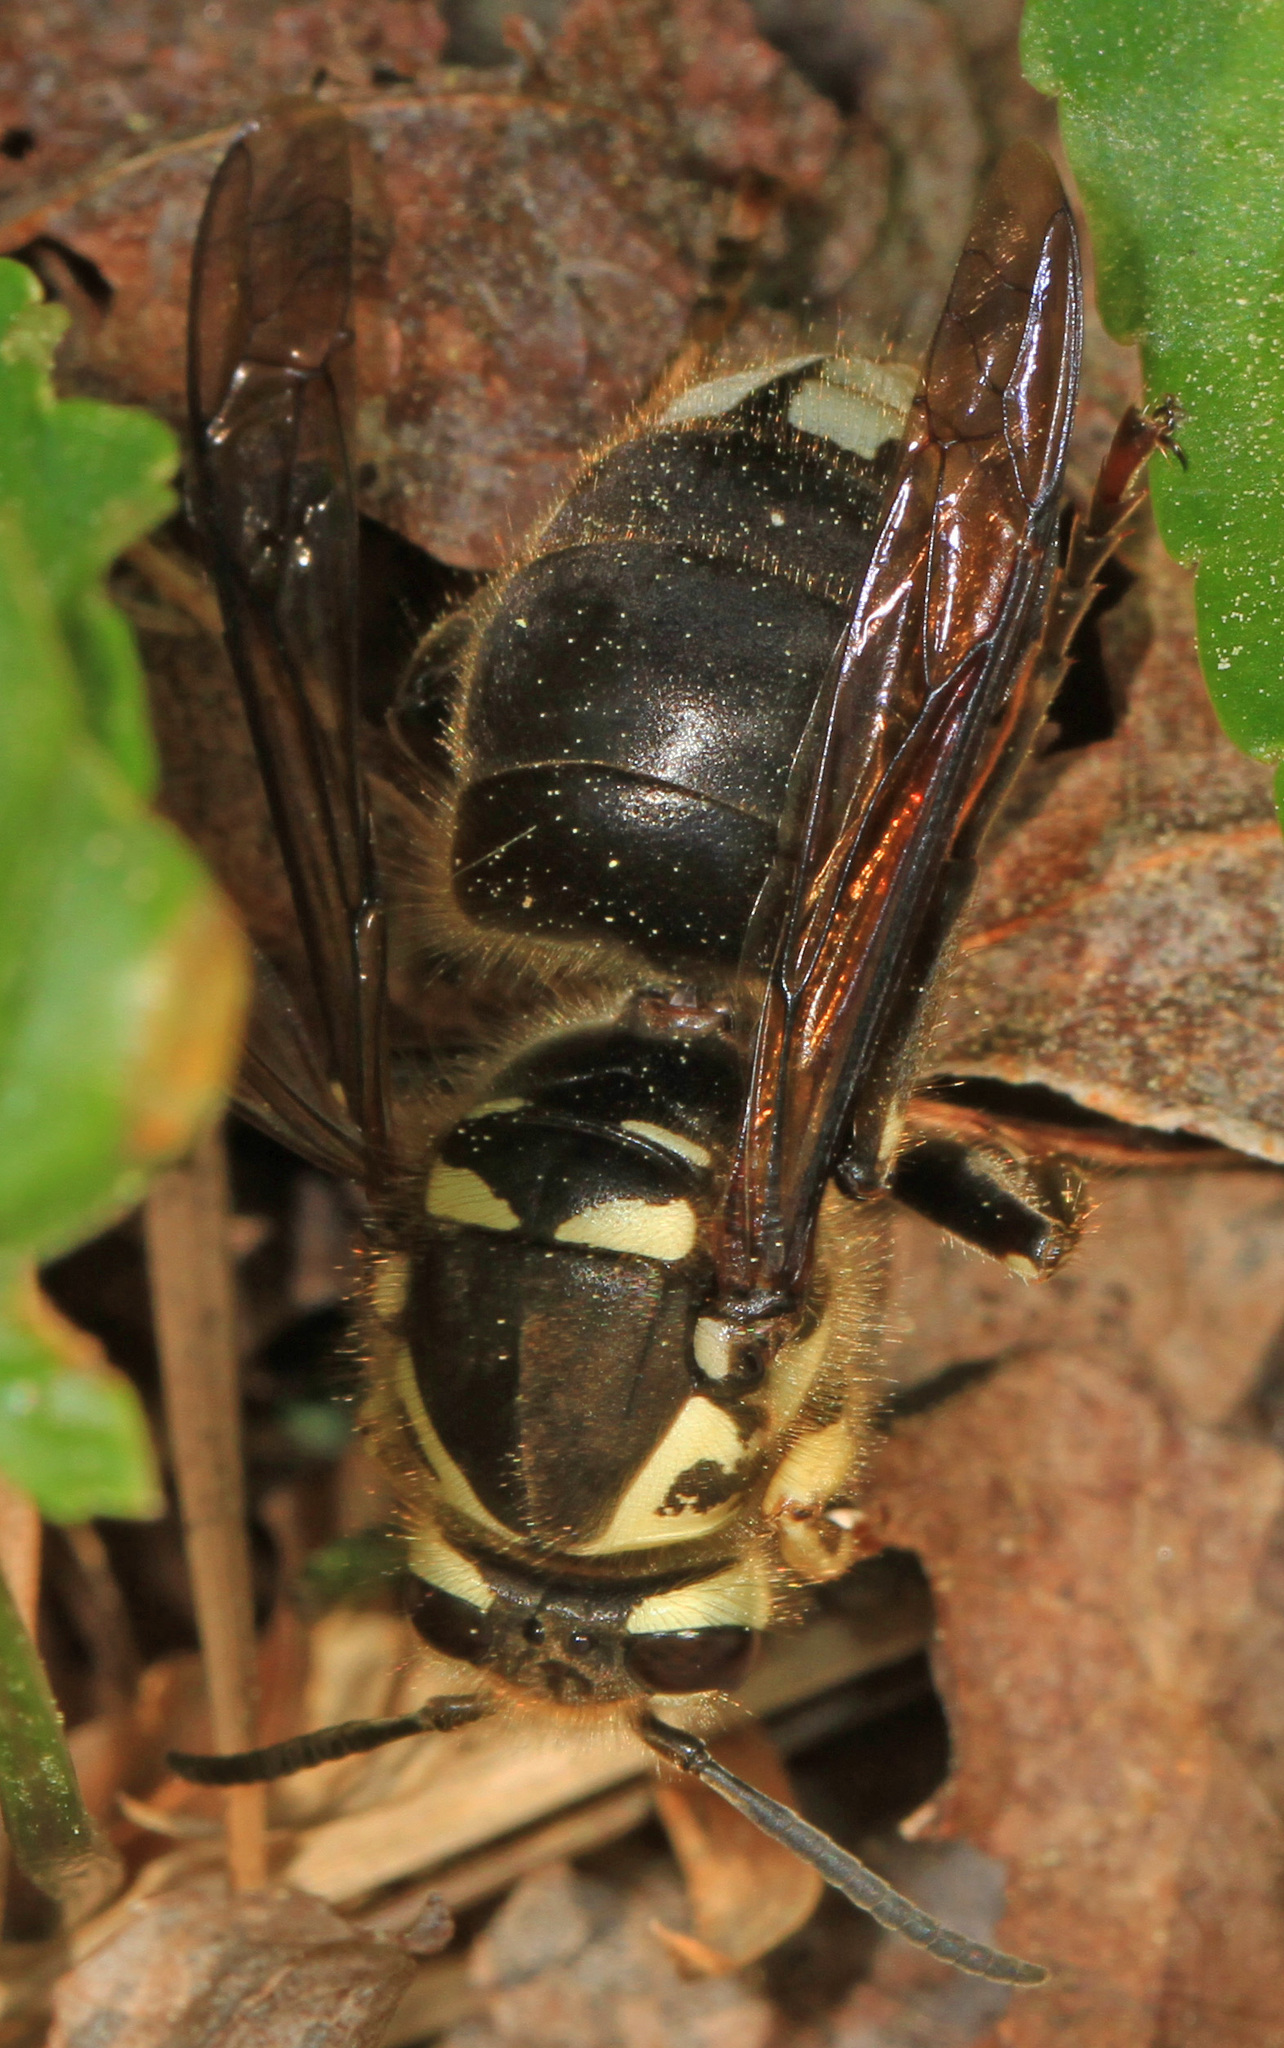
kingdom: Animalia
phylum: Arthropoda
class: Insecta
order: Hymenoptera
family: Vespidae
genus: Dolichovespula
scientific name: Dolichovespula maculata
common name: Bald-faced hornet
